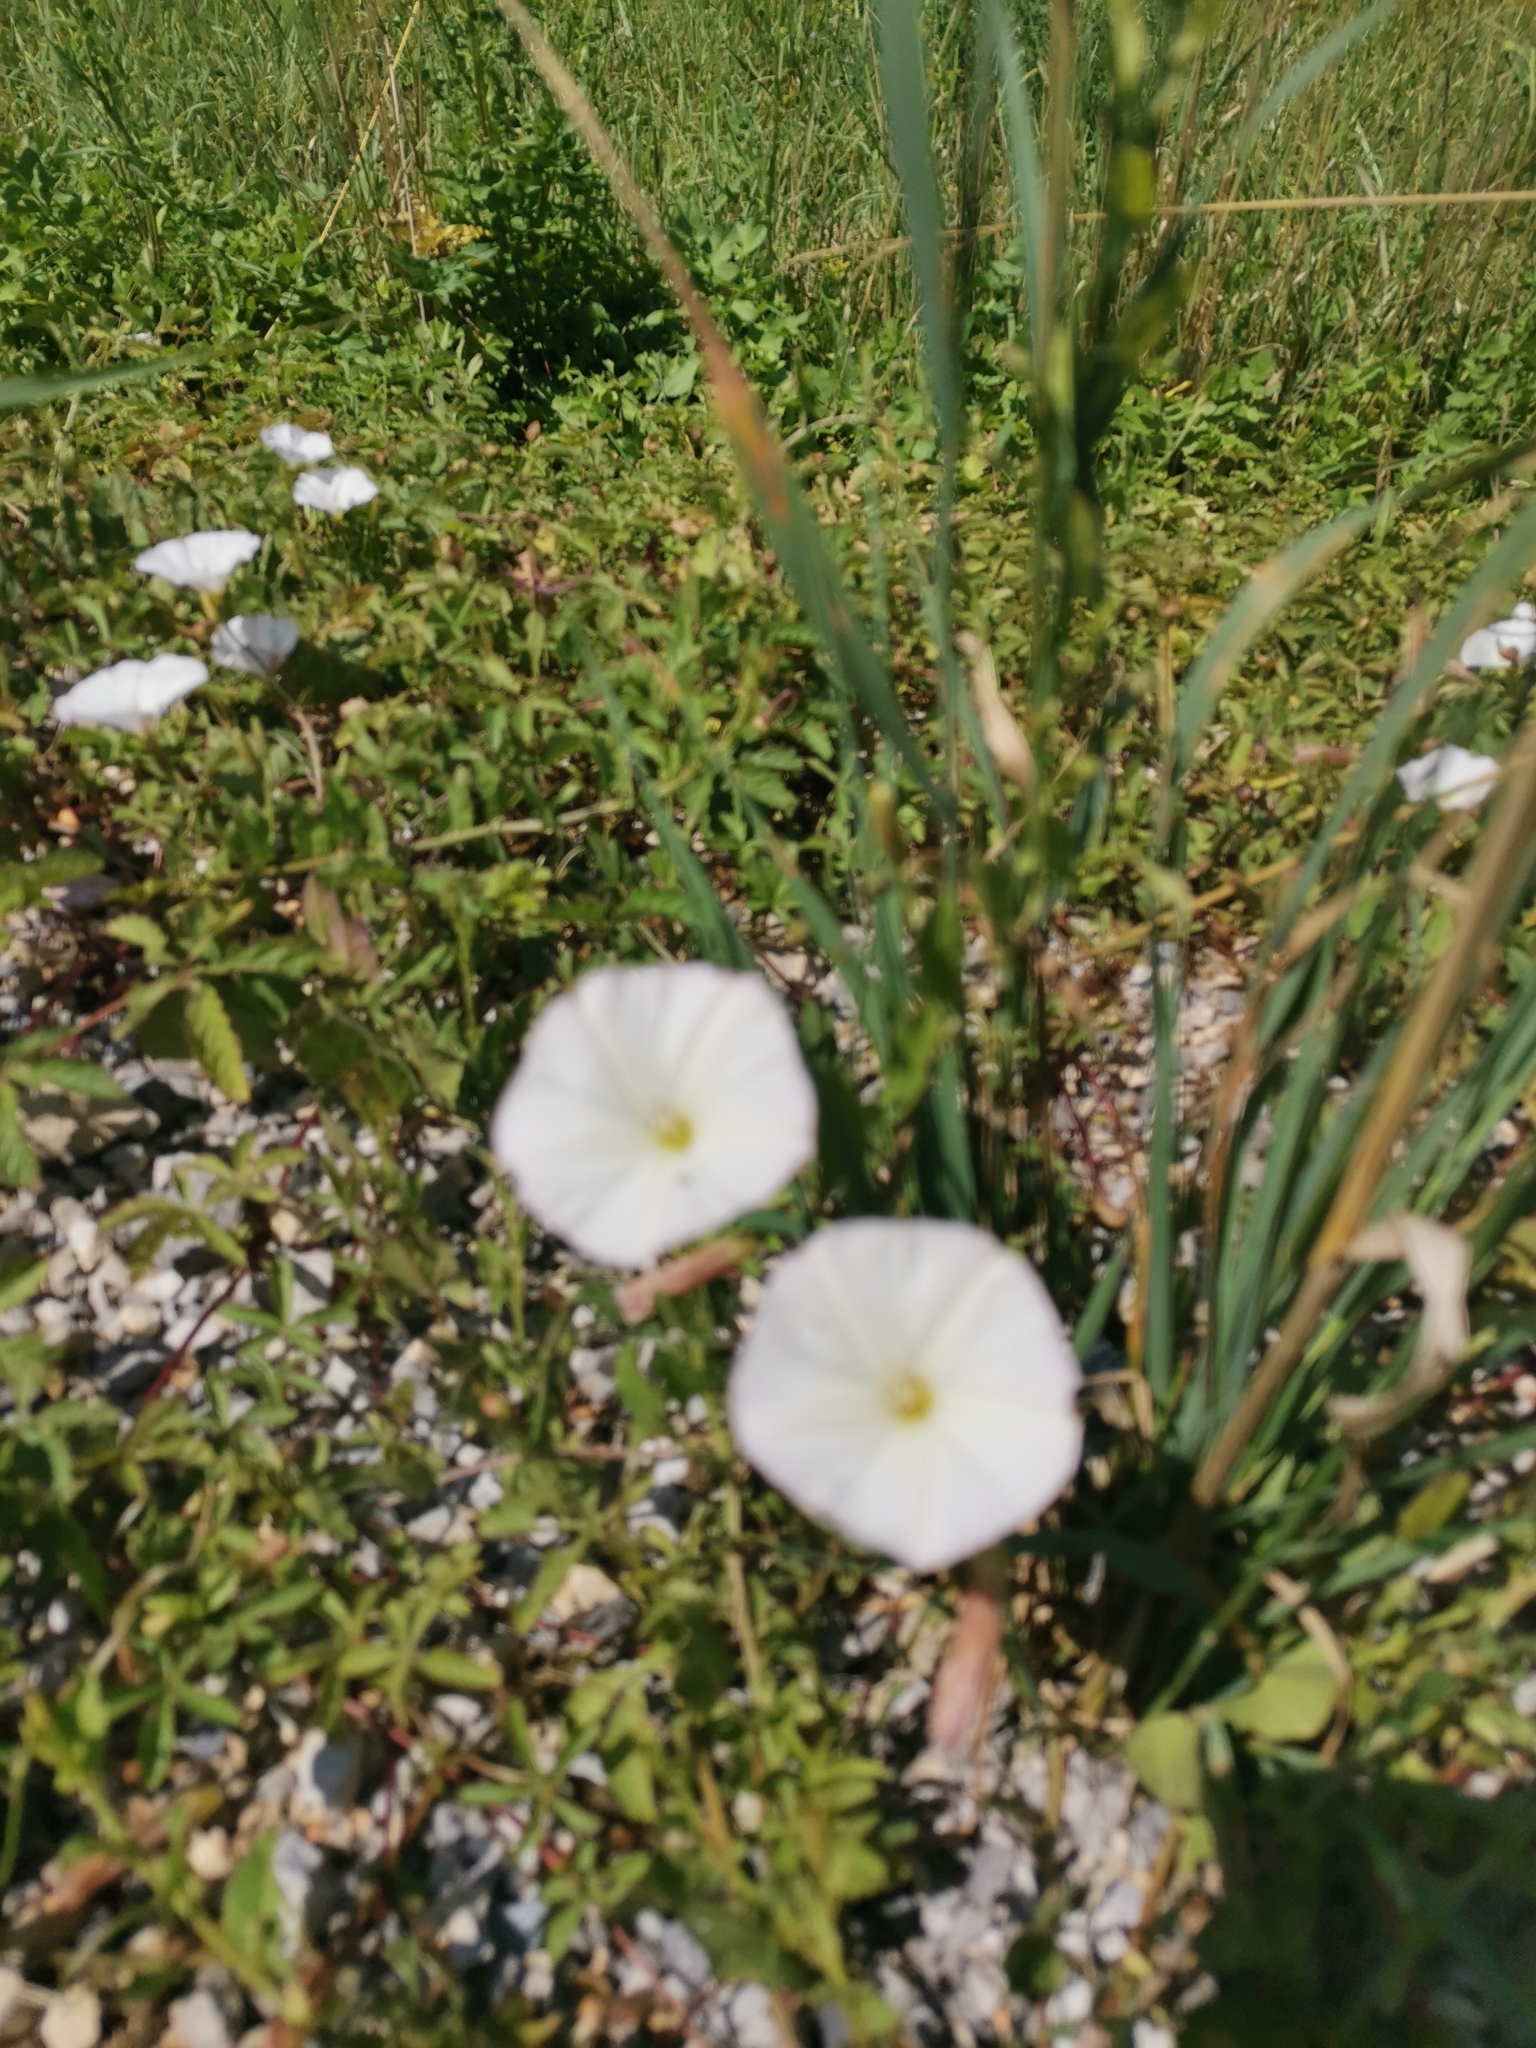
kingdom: Plantae
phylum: Tracheophyta
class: Magnoliopsida
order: Solanales
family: Convolvulaceae
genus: Convolvulus
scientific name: Convolvulus arvensis
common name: Field bindweed
